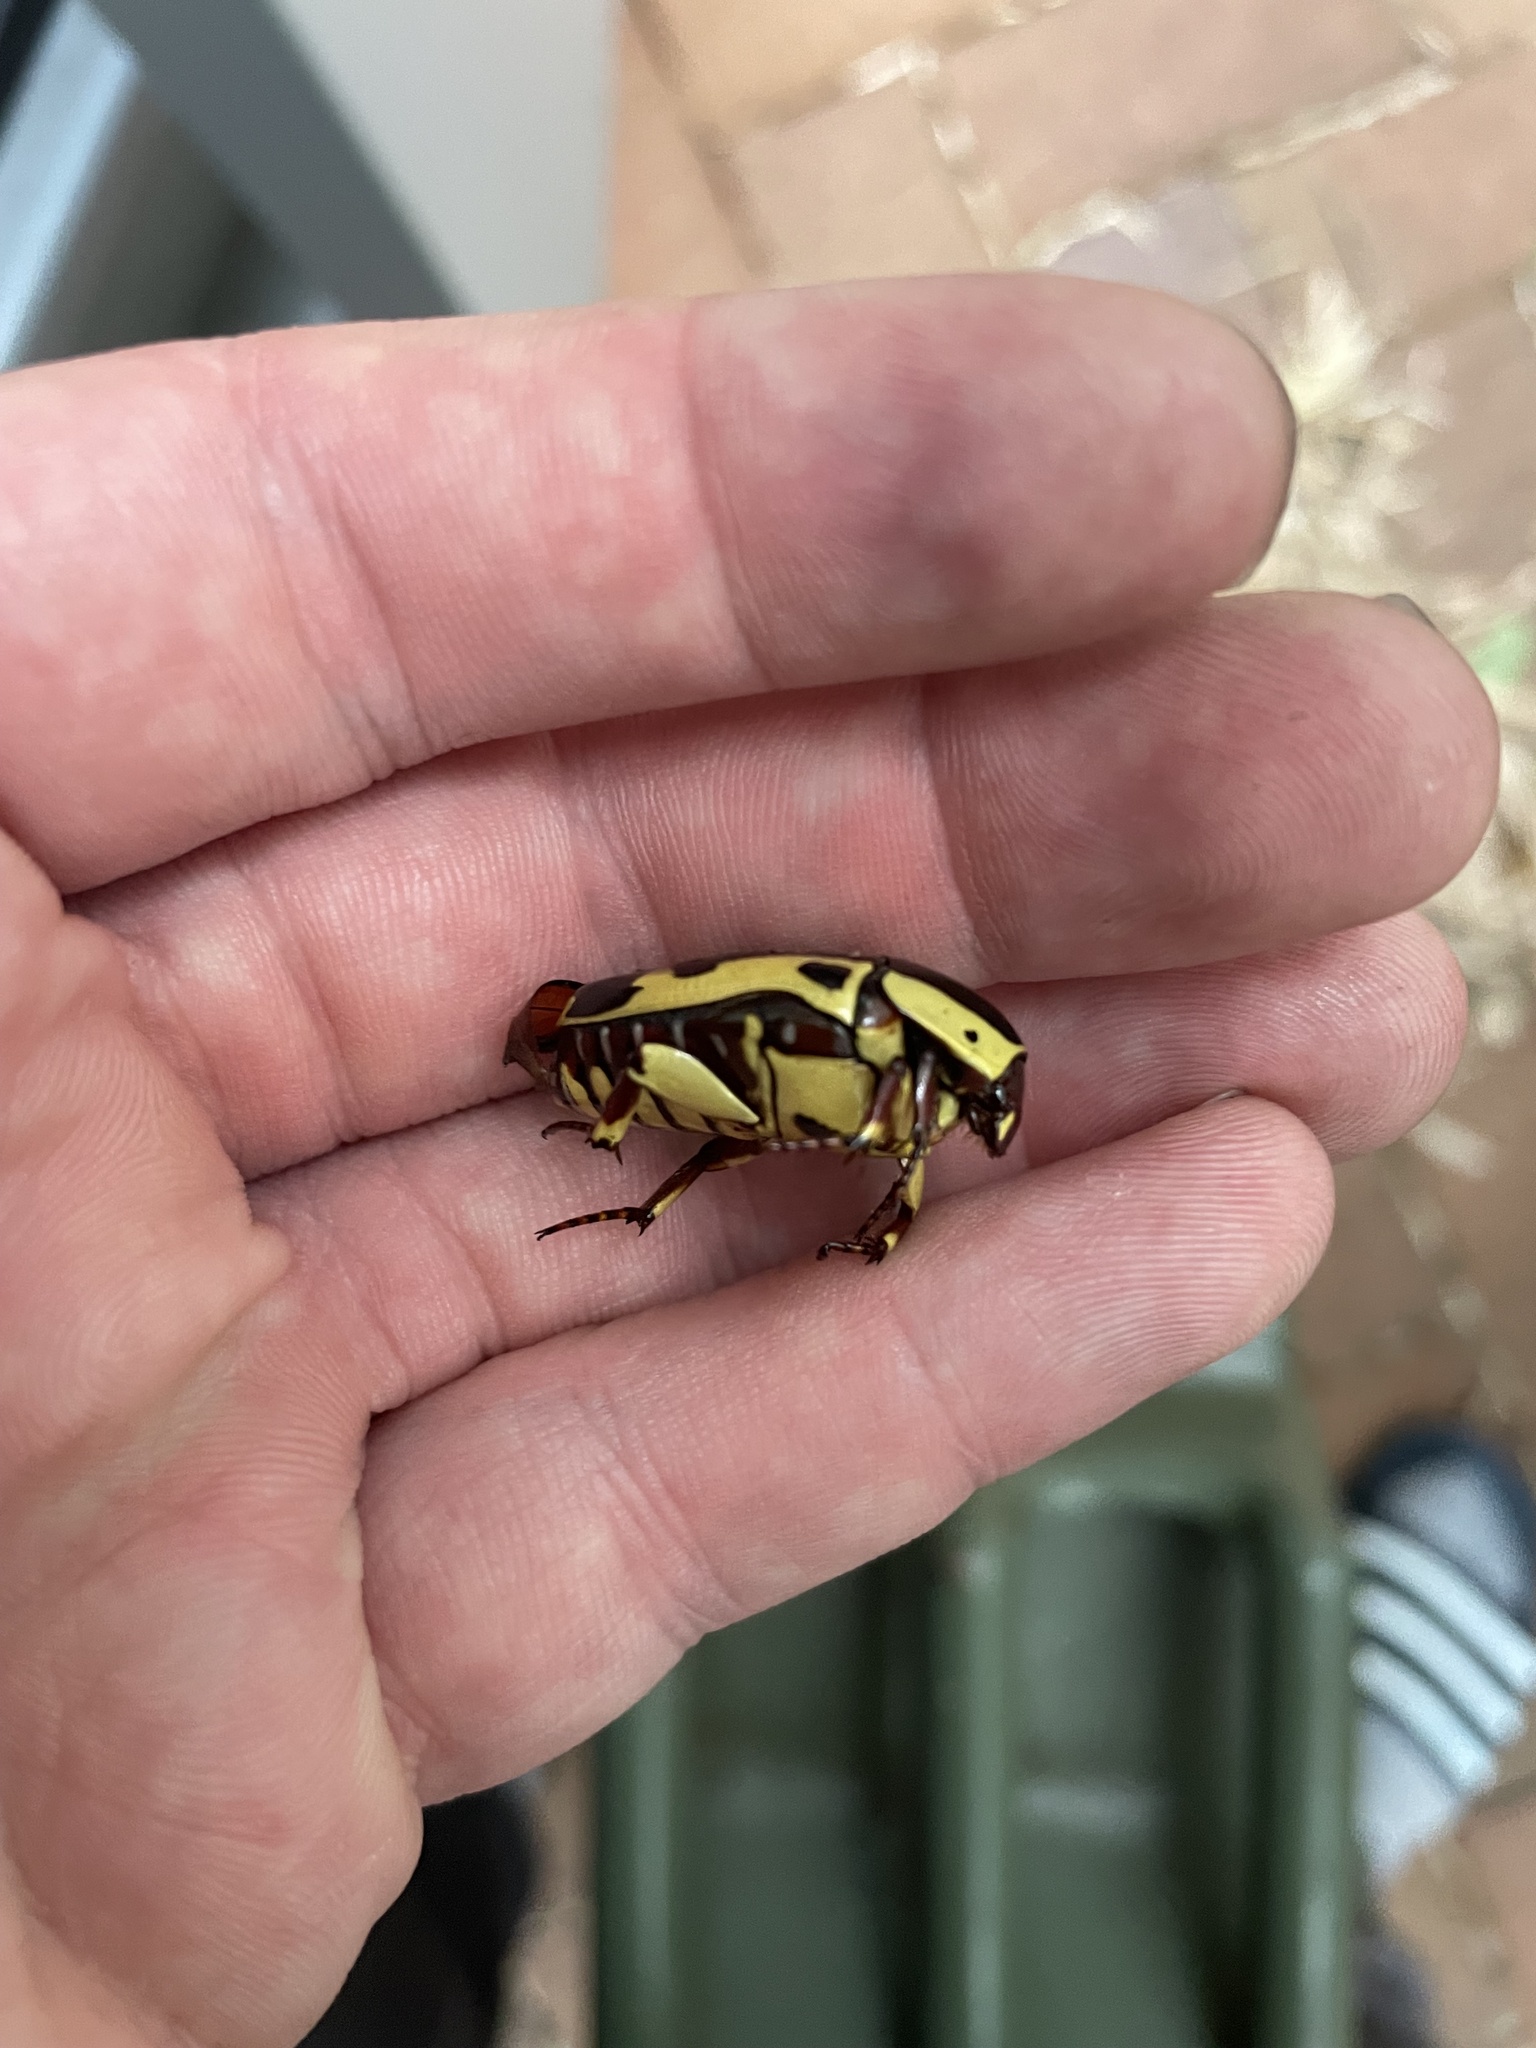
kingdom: Animalia
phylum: Arthropoda
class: Insecta
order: Coleoptera
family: Scarabaeidae
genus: Pachnoda
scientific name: Pachnoda sinuata
